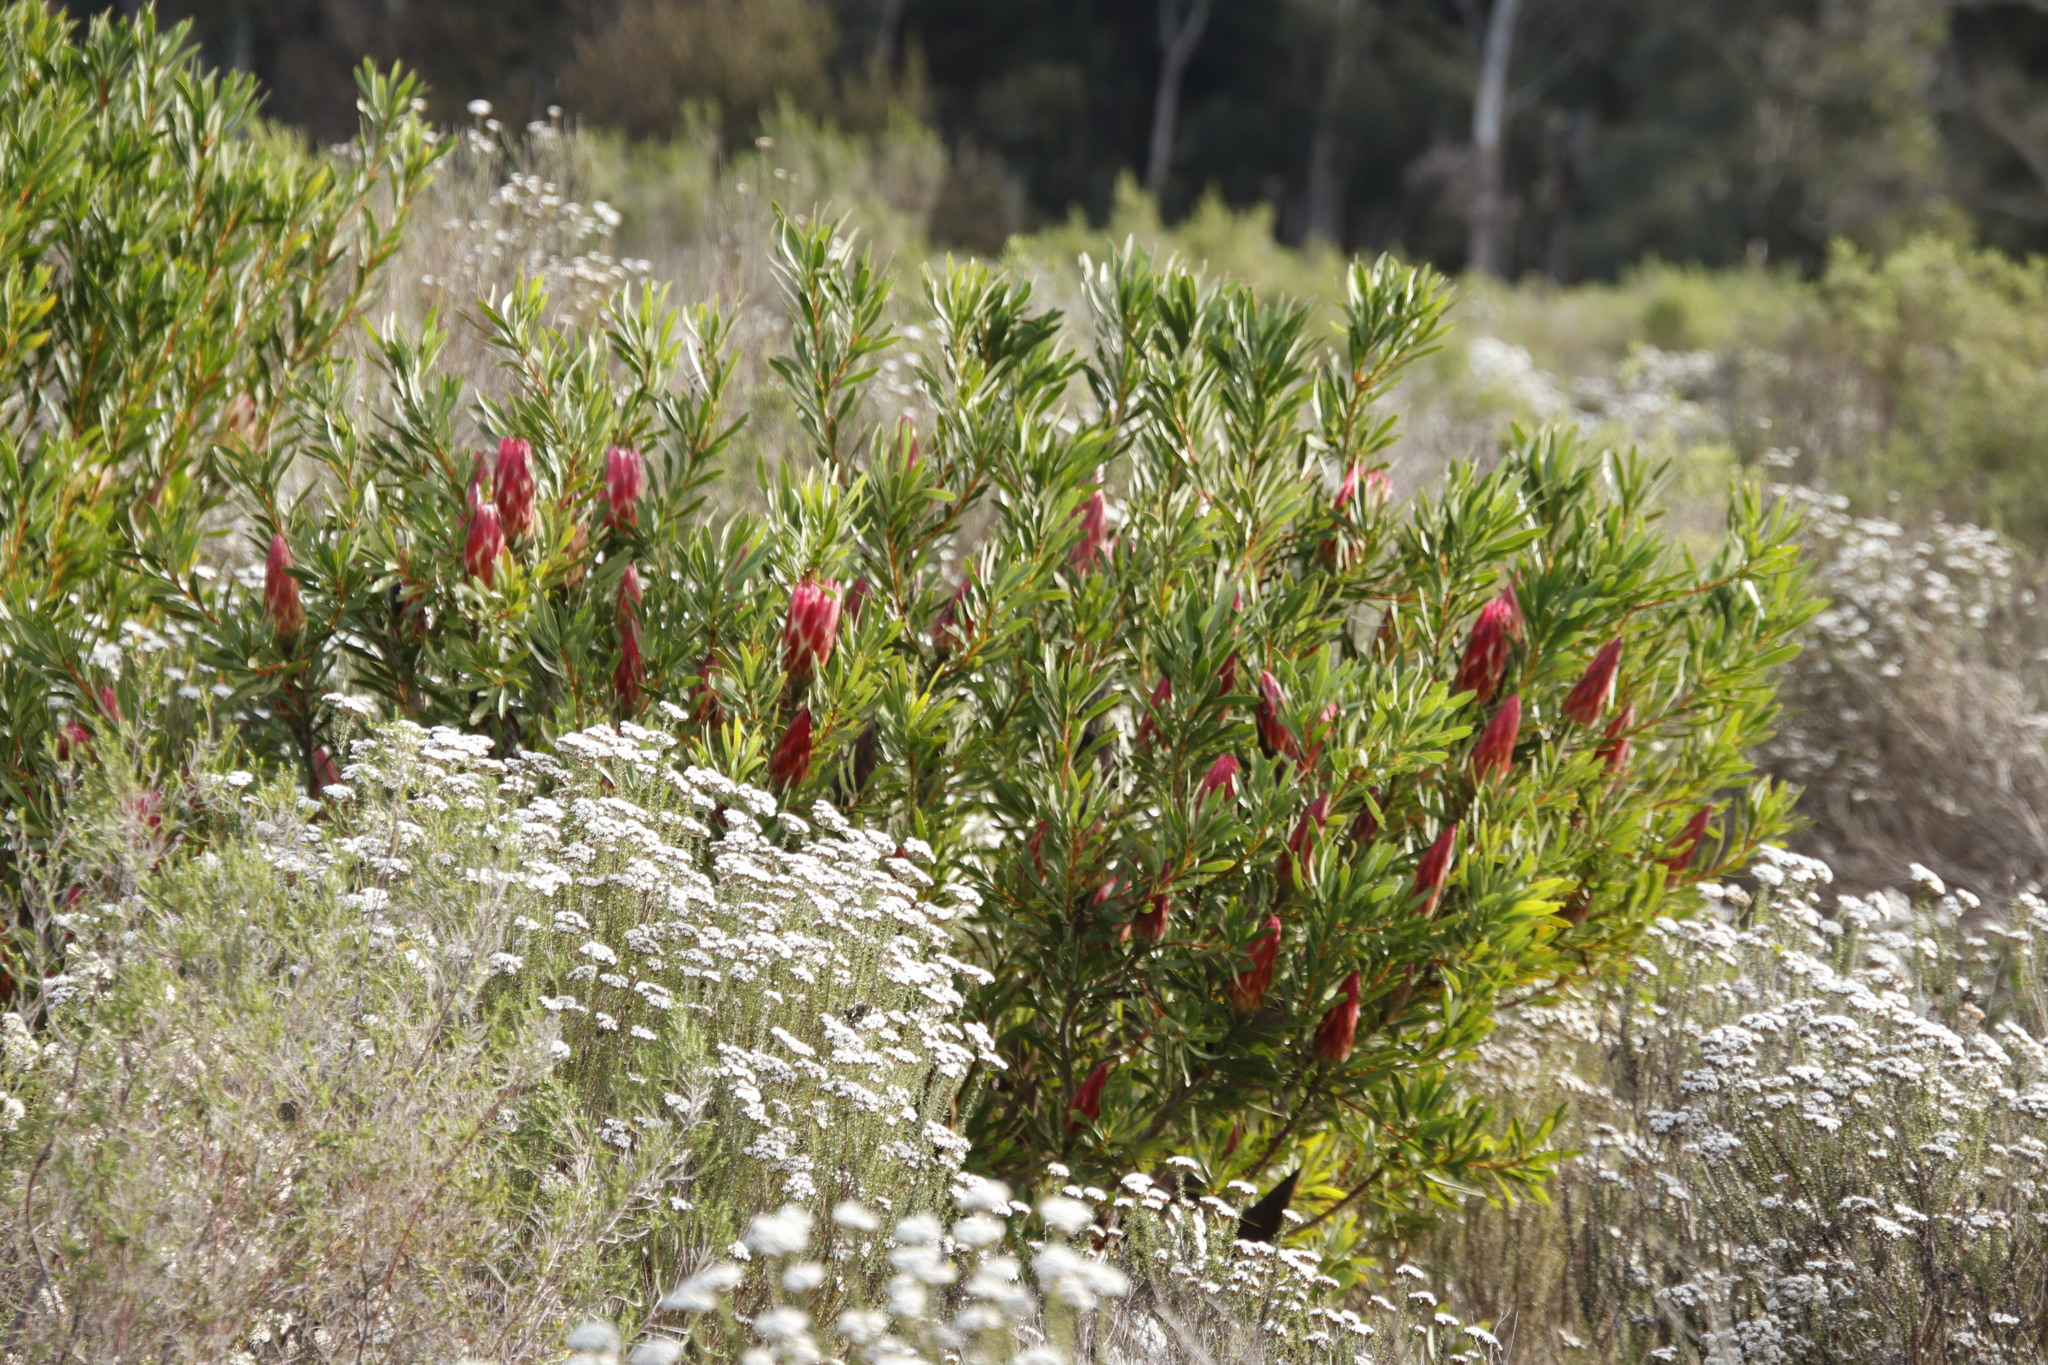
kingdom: Plantae
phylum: Tracheophyta
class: Magnoliopsida
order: Proteales
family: Proteaceae
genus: Protea
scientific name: Protea repens
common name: Sugarbush
